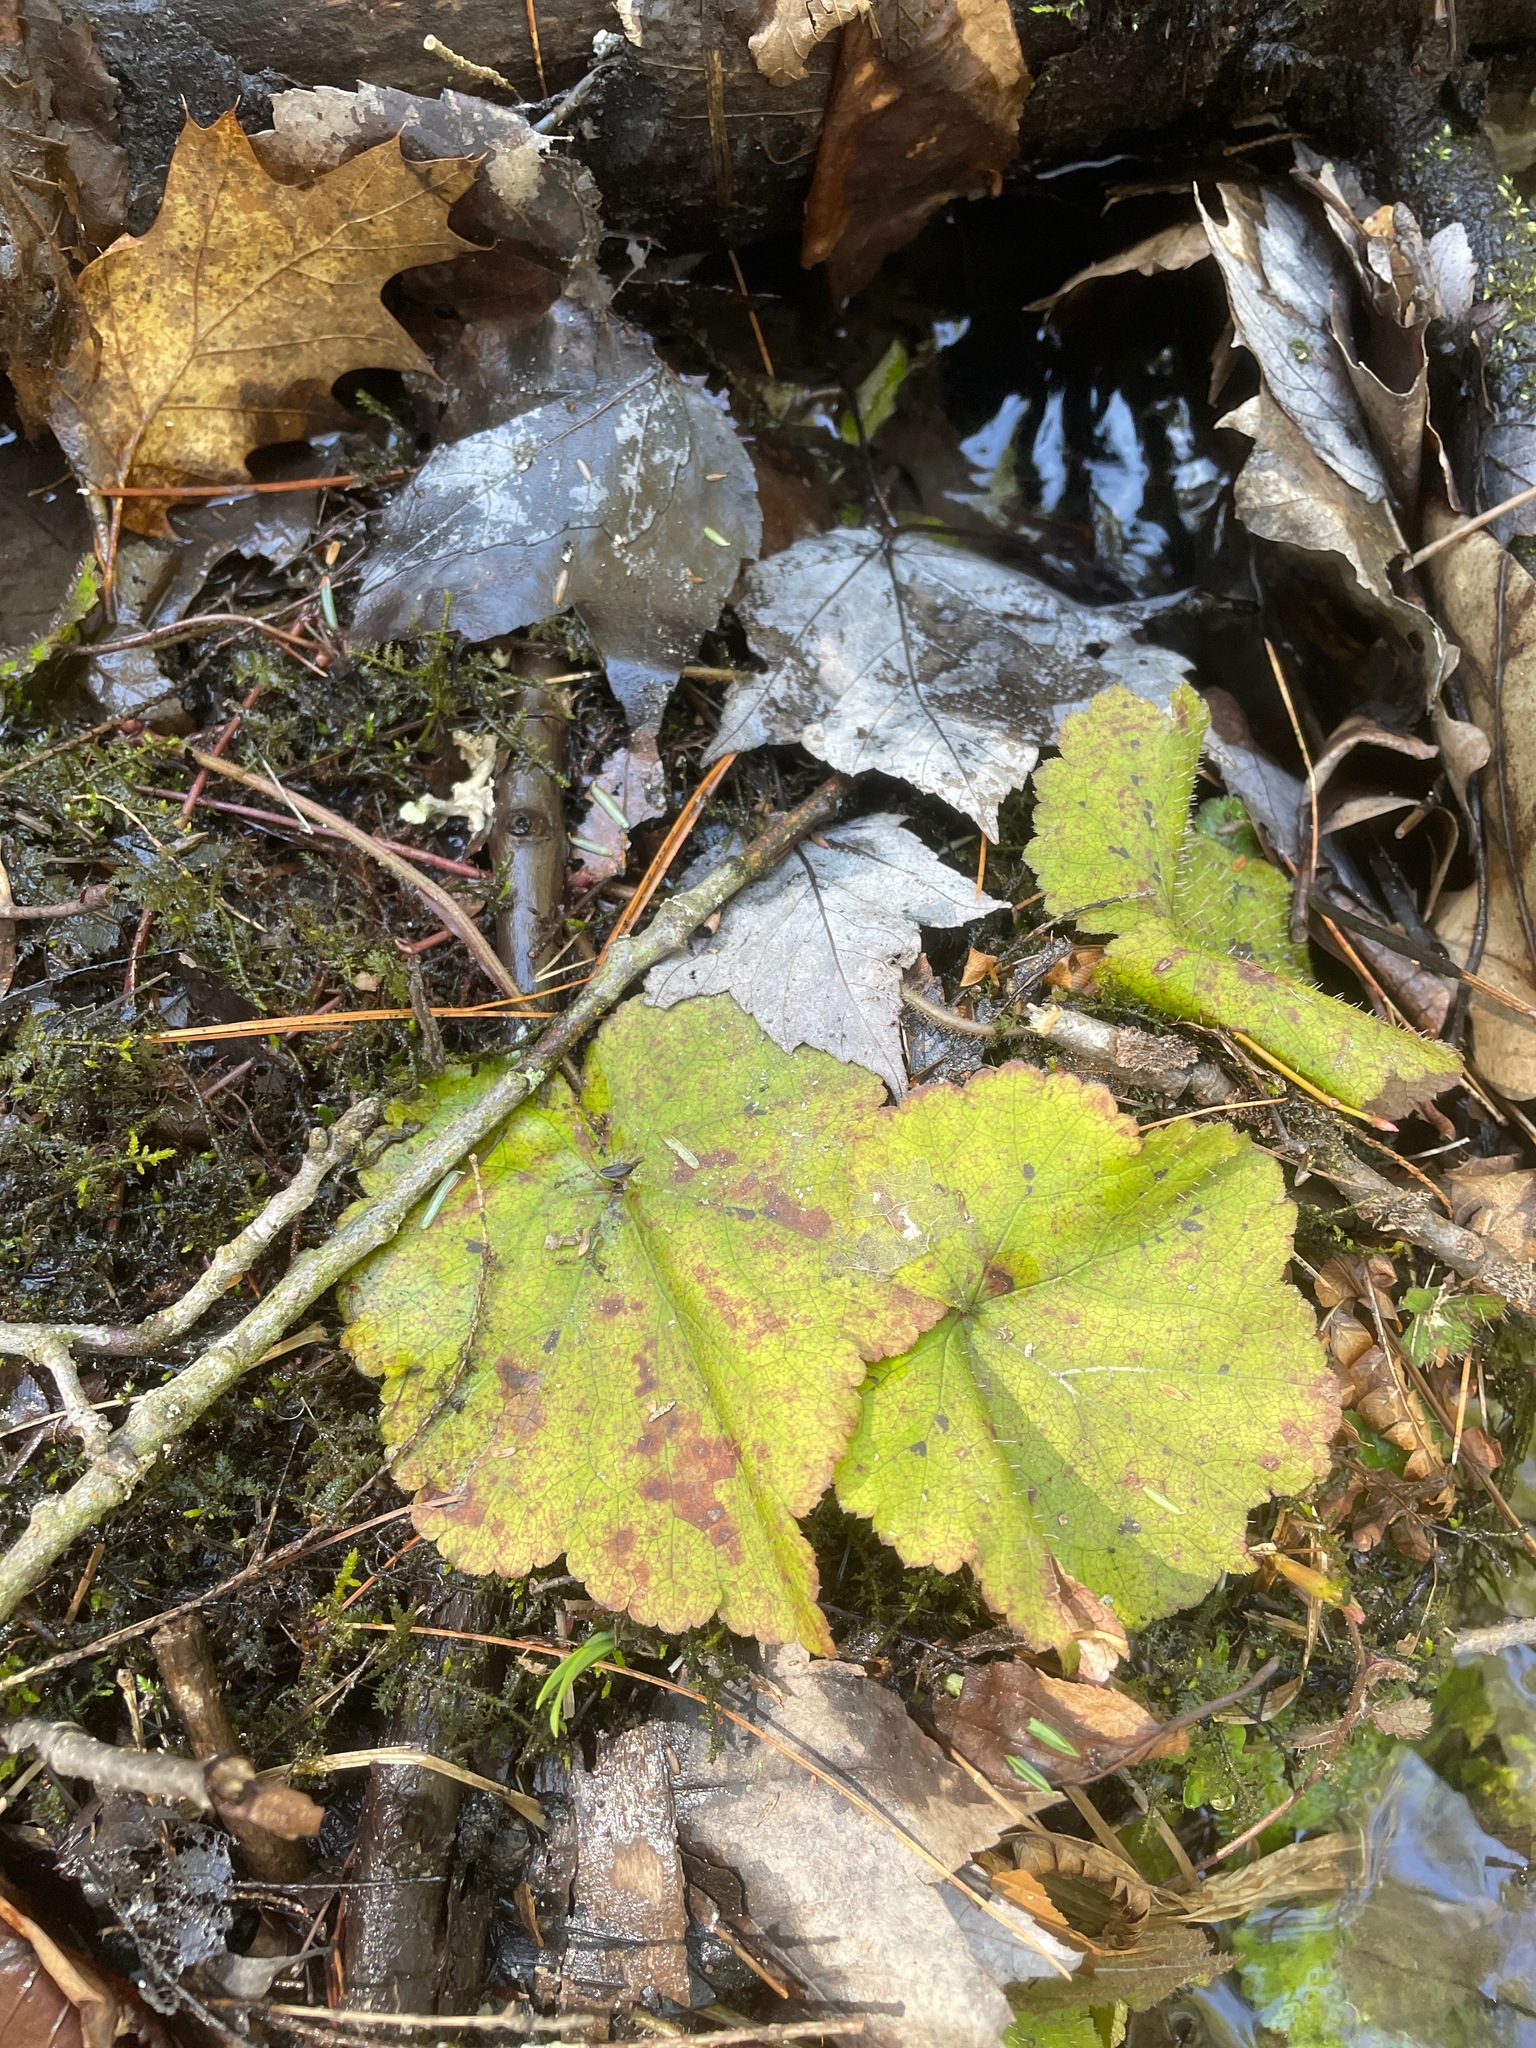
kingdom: Plantae
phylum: Tracheophyta
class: Magnoliopsida
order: Saxifragales
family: Saxifragaceae
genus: Tiarella
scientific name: Tiarella stolonifera
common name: Stoloniferous foamflower
